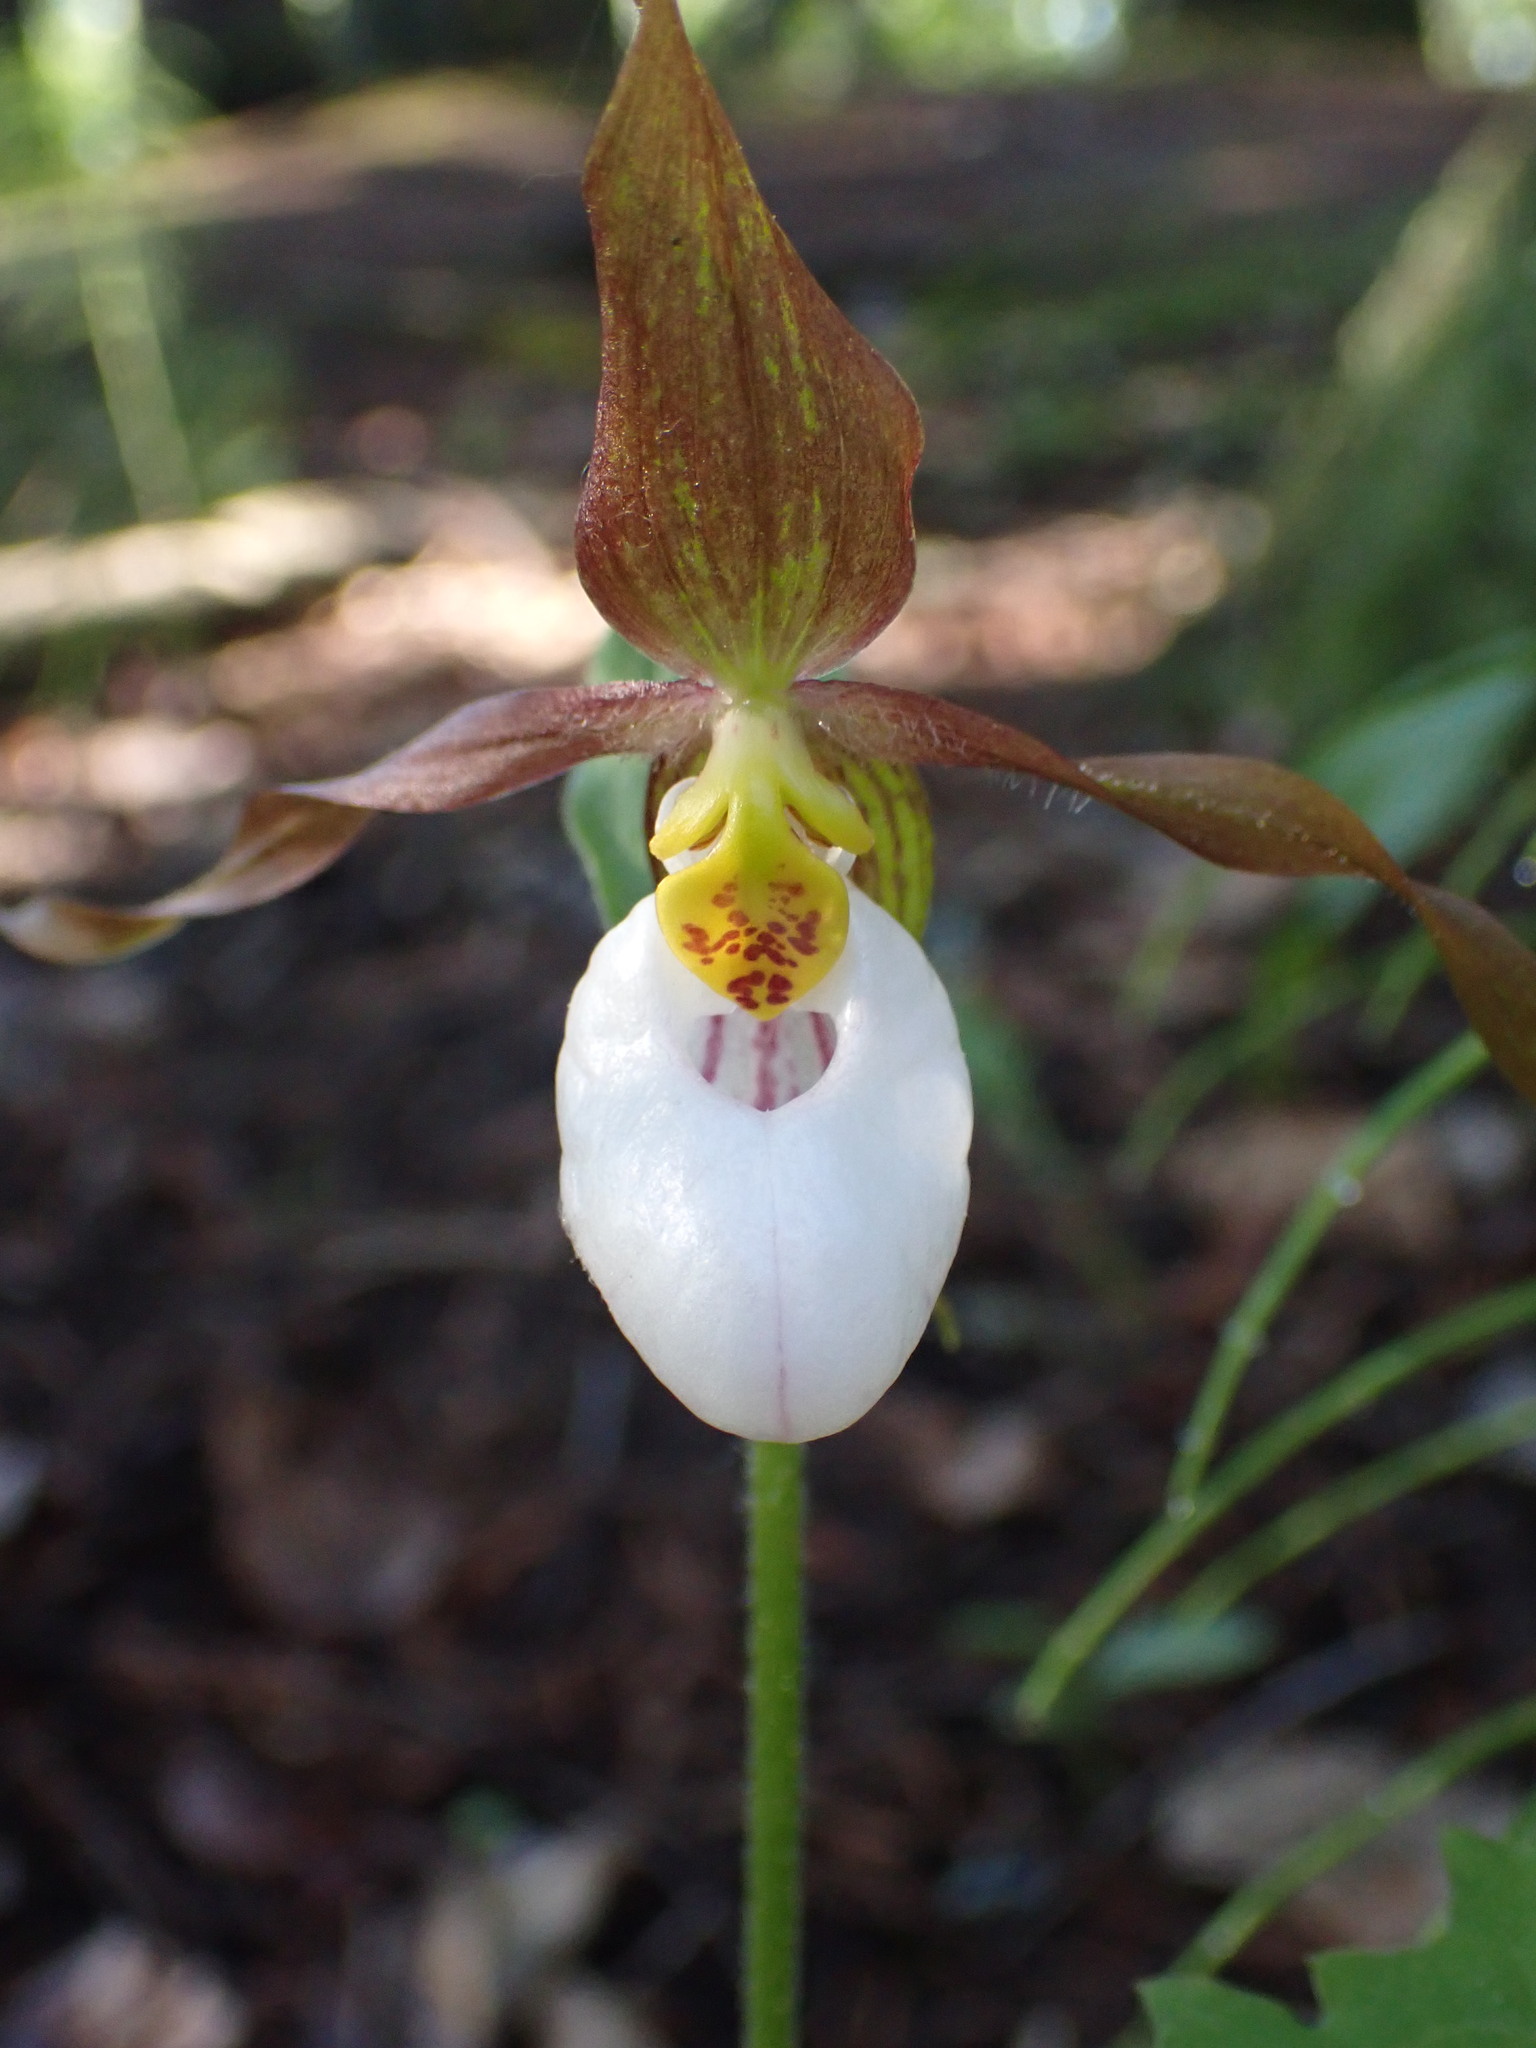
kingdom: Plantae
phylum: Tracheophyta
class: Liliopsida
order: Asparagales
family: Orchidaceae
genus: Cypripedium
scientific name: Cypripedium montanum
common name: Mountain lady's-slipper
